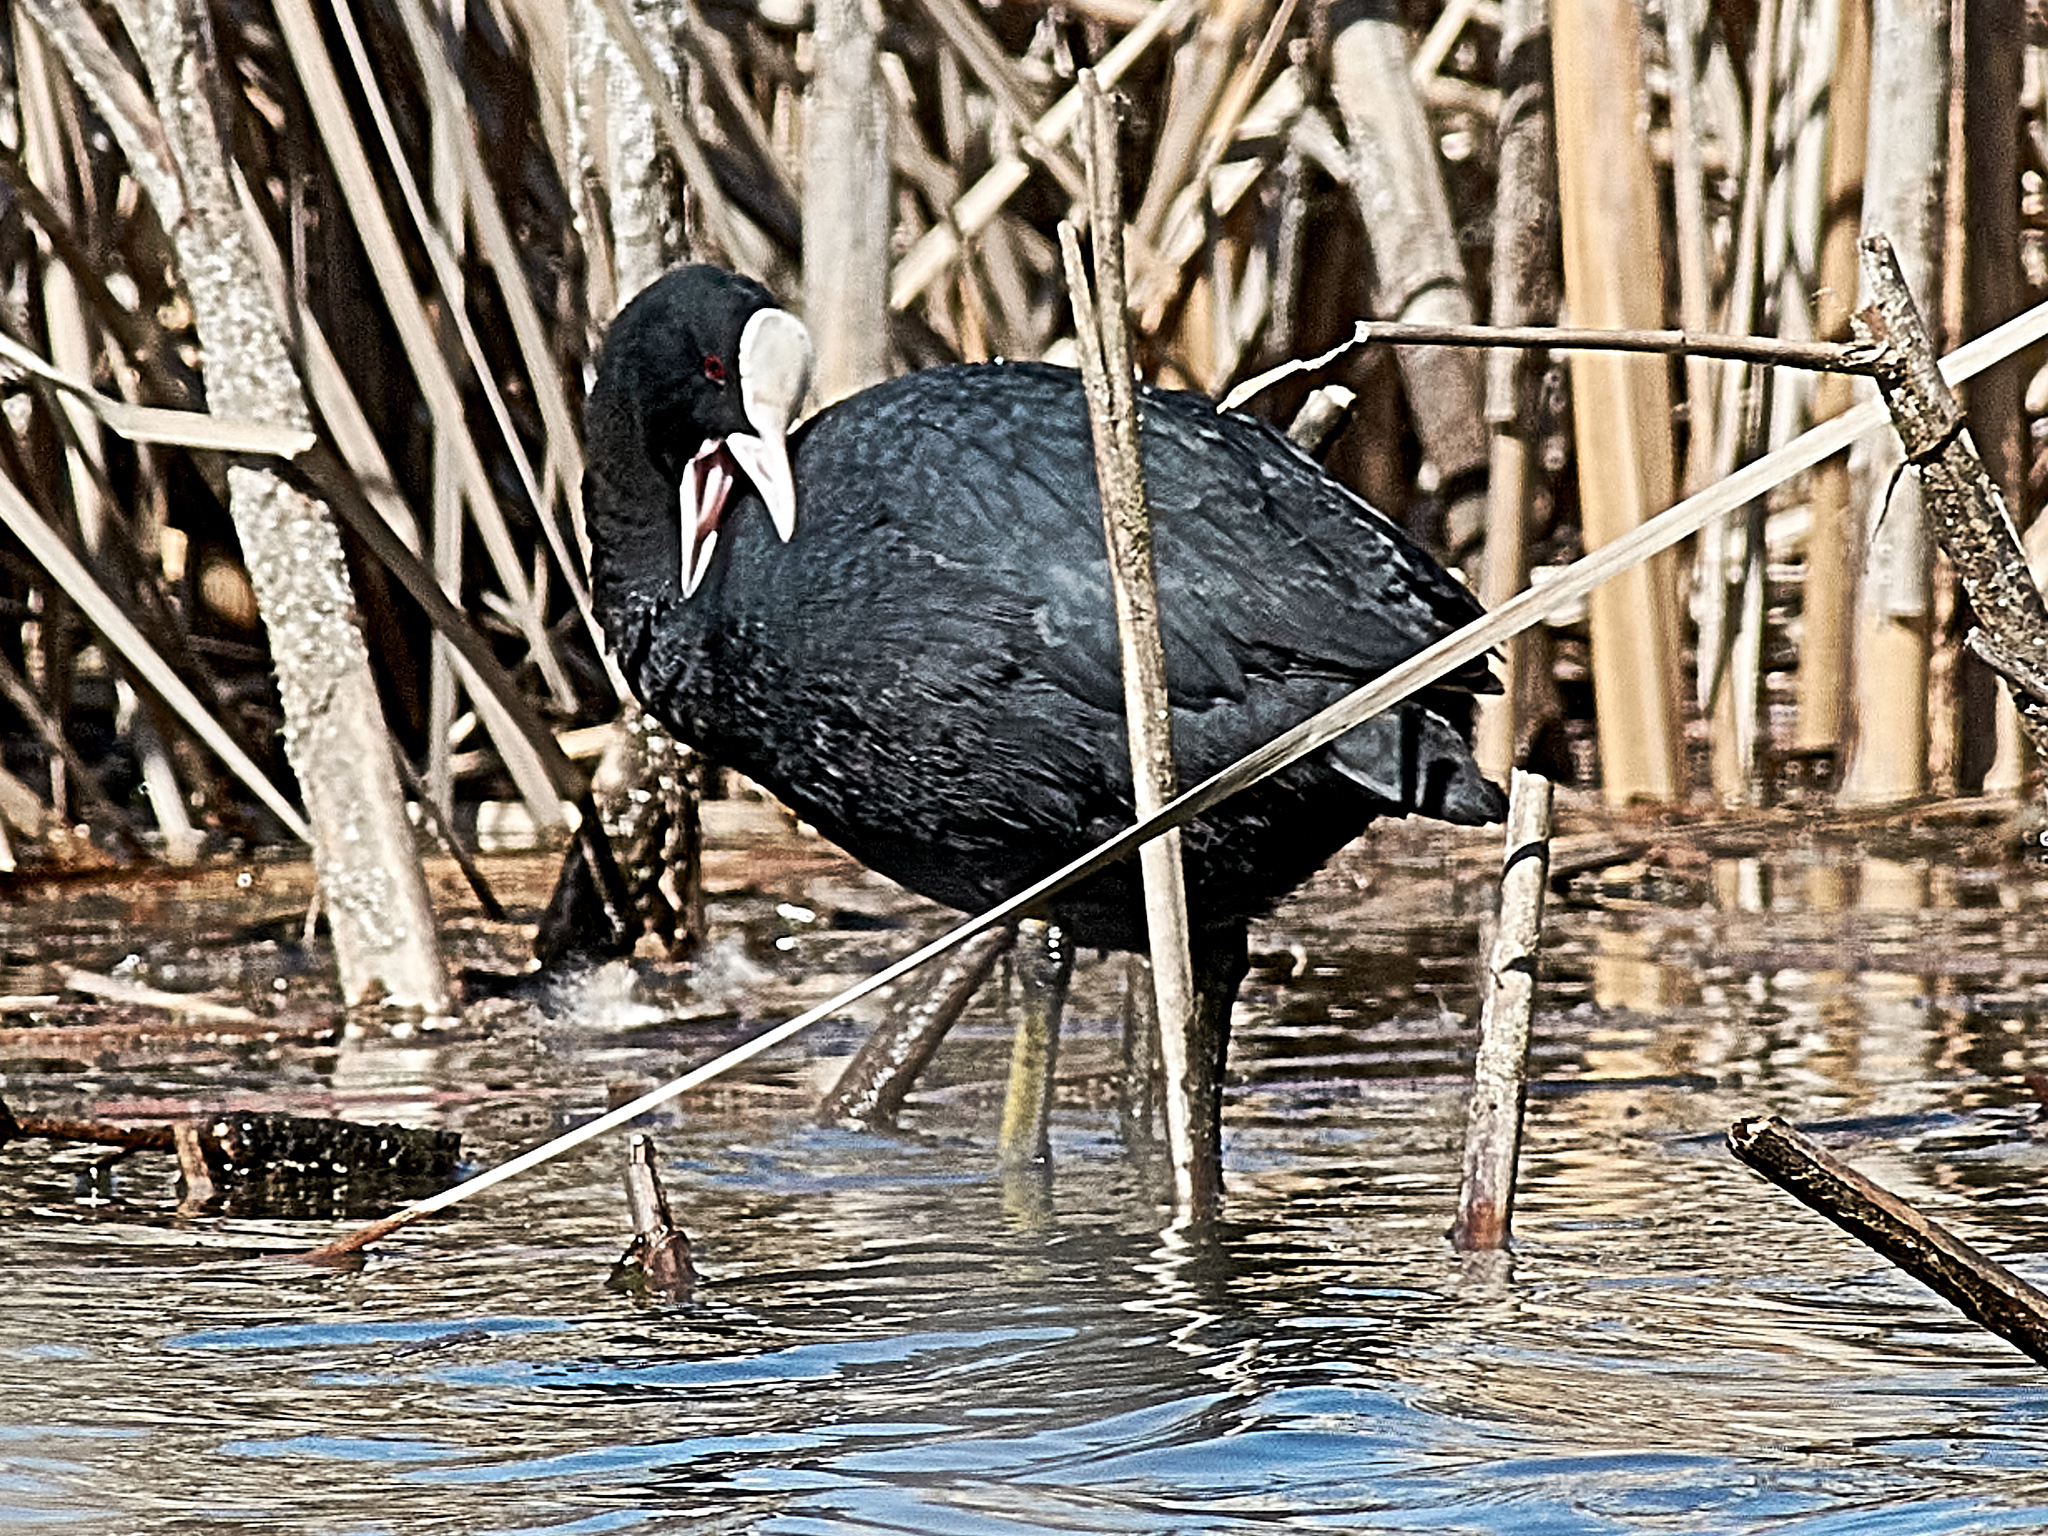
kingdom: Animalia
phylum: Chordata
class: Aves
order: Gruiformes
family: Rallidae
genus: Fulica
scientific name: Fulica atra
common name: Eurasian coot
